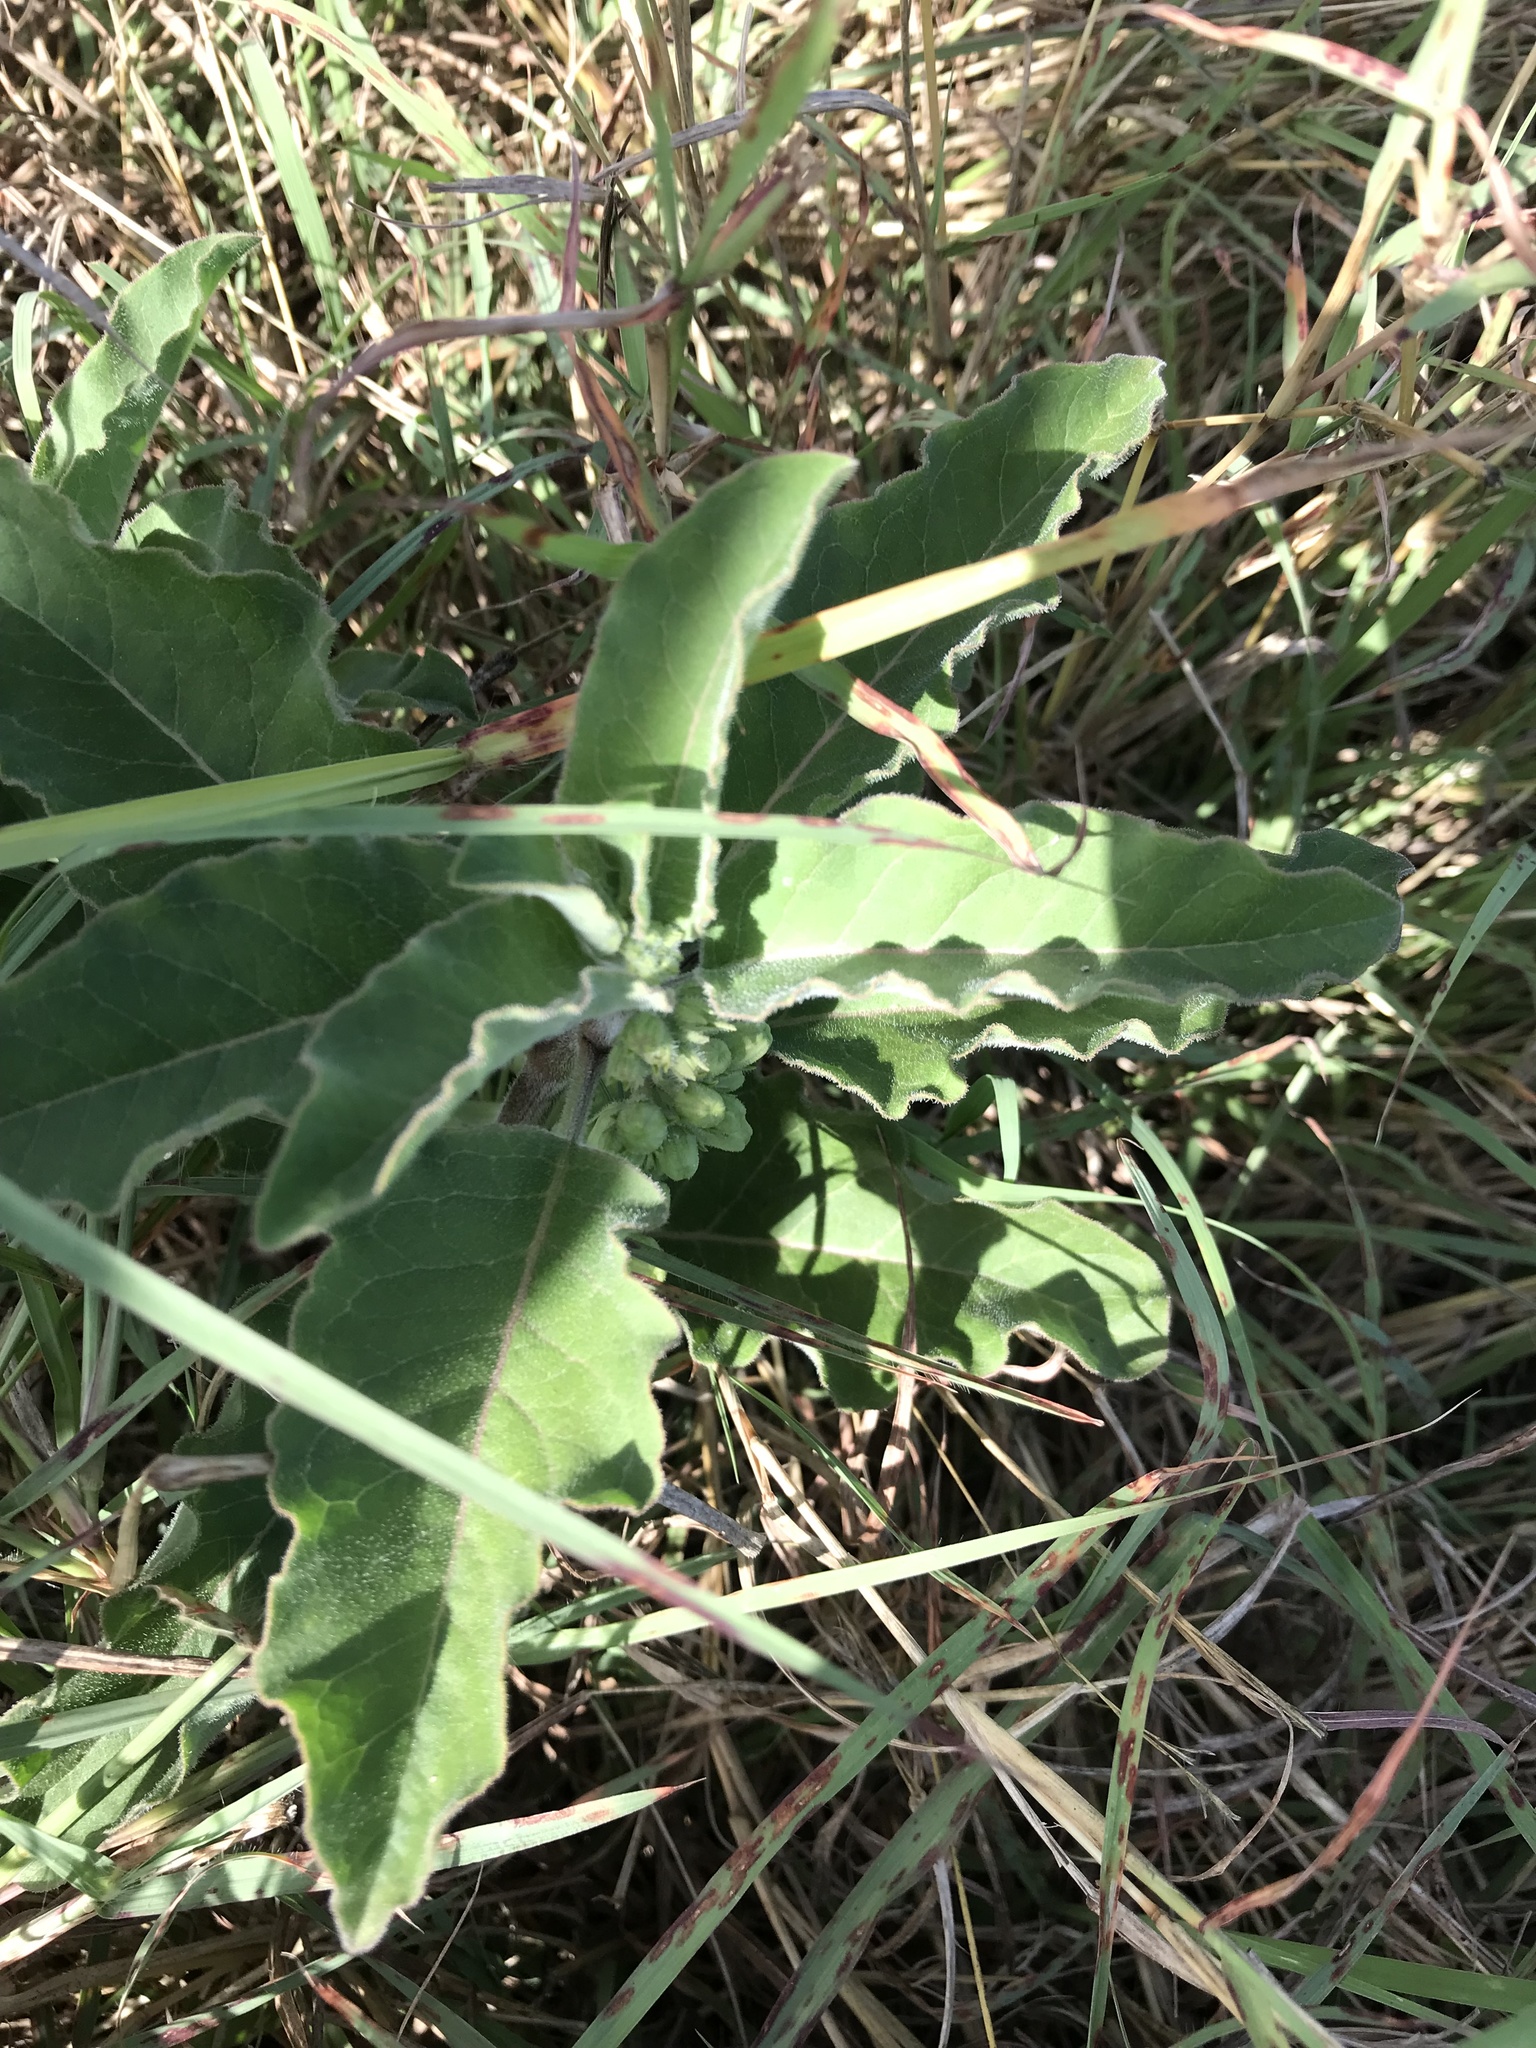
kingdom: Plantae
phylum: Tracheophyta
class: Magnoliopsida
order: Gentianales
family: Apocynaceae
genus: Asclepias
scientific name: Asclepias oenotheroides
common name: Zizotes milkweed
